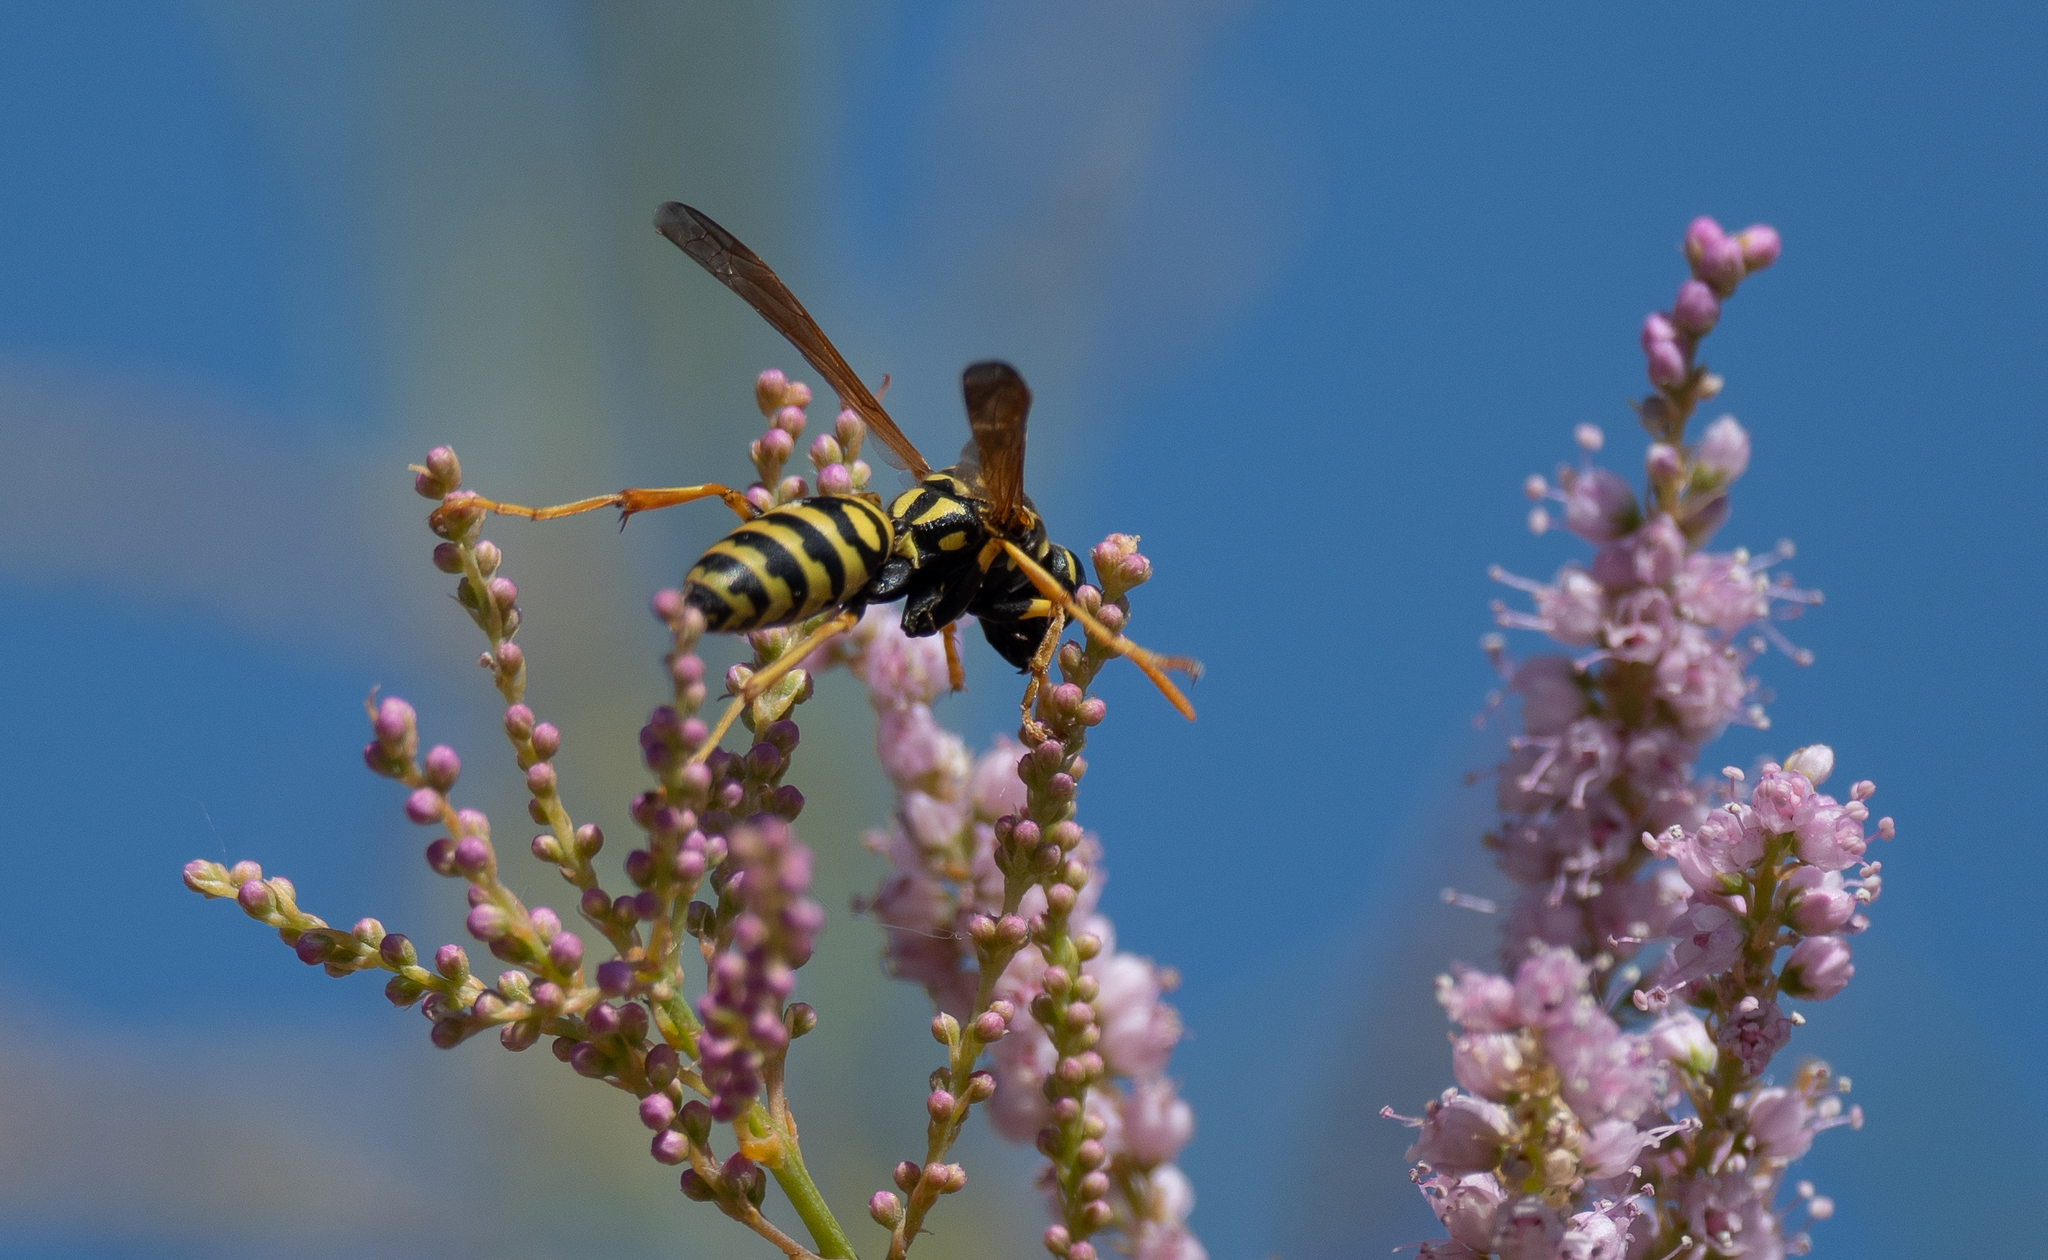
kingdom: Animalia
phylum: Arthropoda
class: Insecta
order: Hymenoptera
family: Eumenidae
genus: Polistes
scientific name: Polistes dominula
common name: Paper wasp
